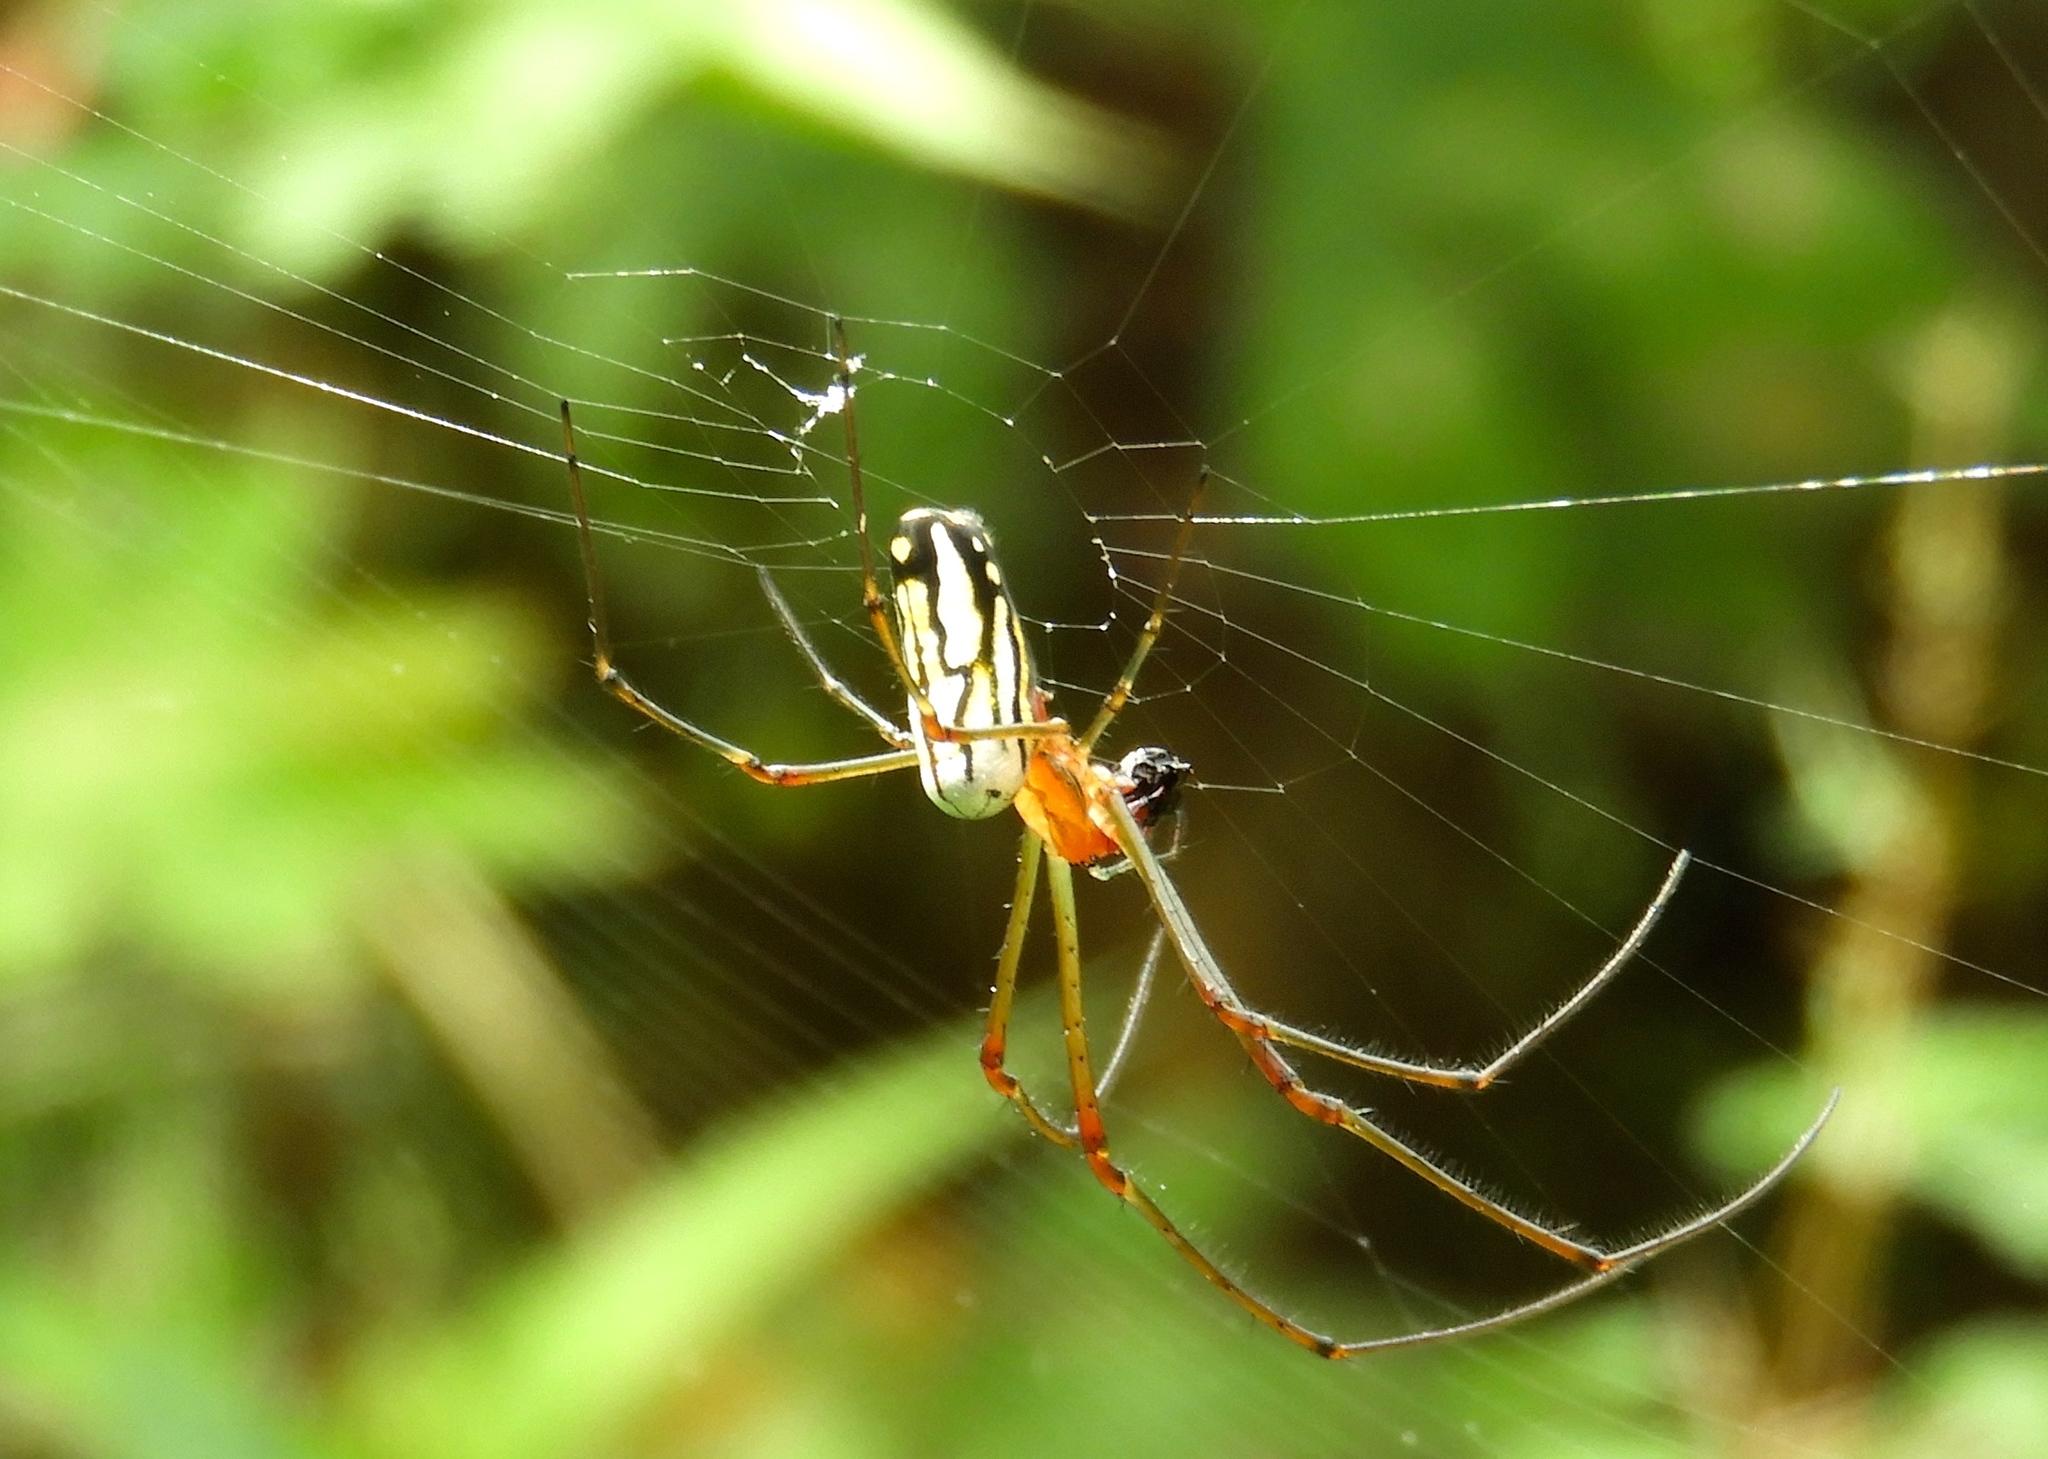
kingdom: Animalia
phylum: Arthropoda
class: Arachnida
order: Araneae
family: Tetragnathidae
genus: Leucauge
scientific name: Leucauge
